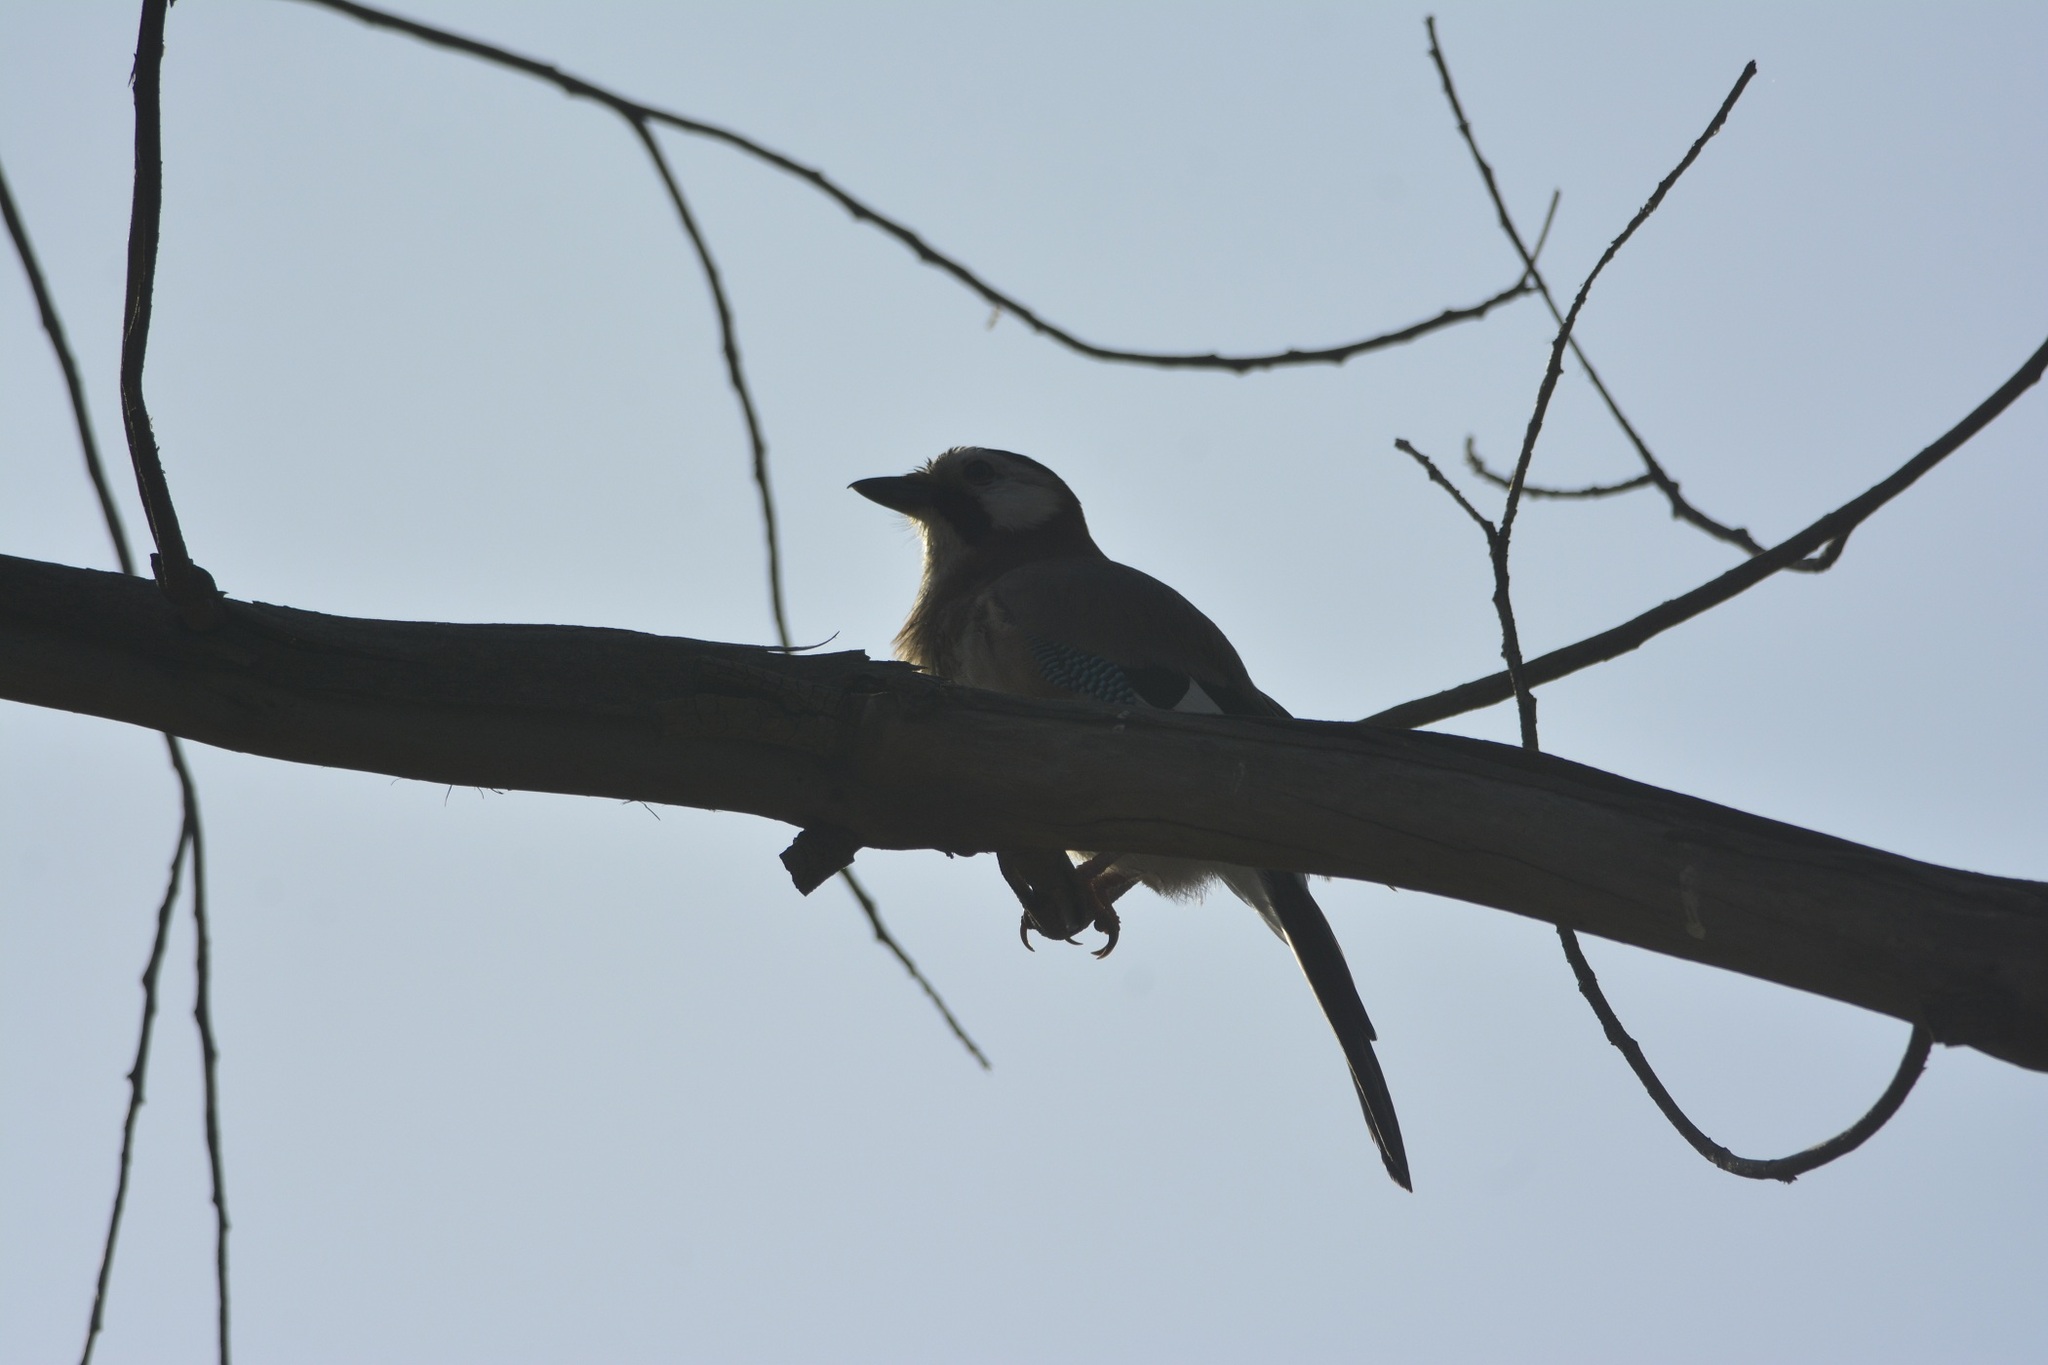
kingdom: Animalia
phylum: Chordata
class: Aves
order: Passeriformes
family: Corvidae
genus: Garrulus
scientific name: Garrulus glandarius
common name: Eurasian jay
